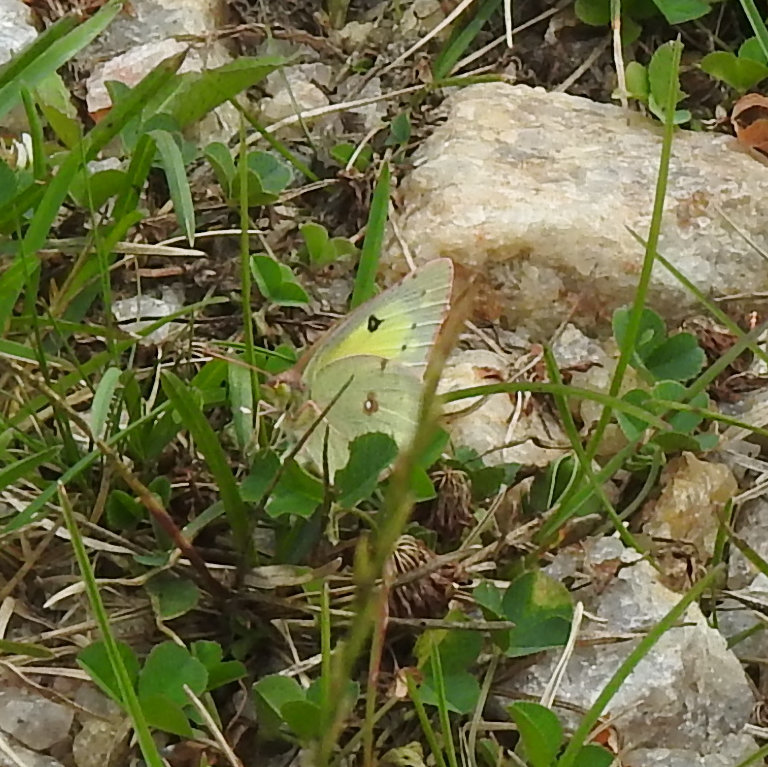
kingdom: Animalia
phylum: Arthropoda
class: Insecta
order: Lepidoptera
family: Pieridae
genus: Colias
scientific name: Colias philodice
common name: Clouded sulphur
